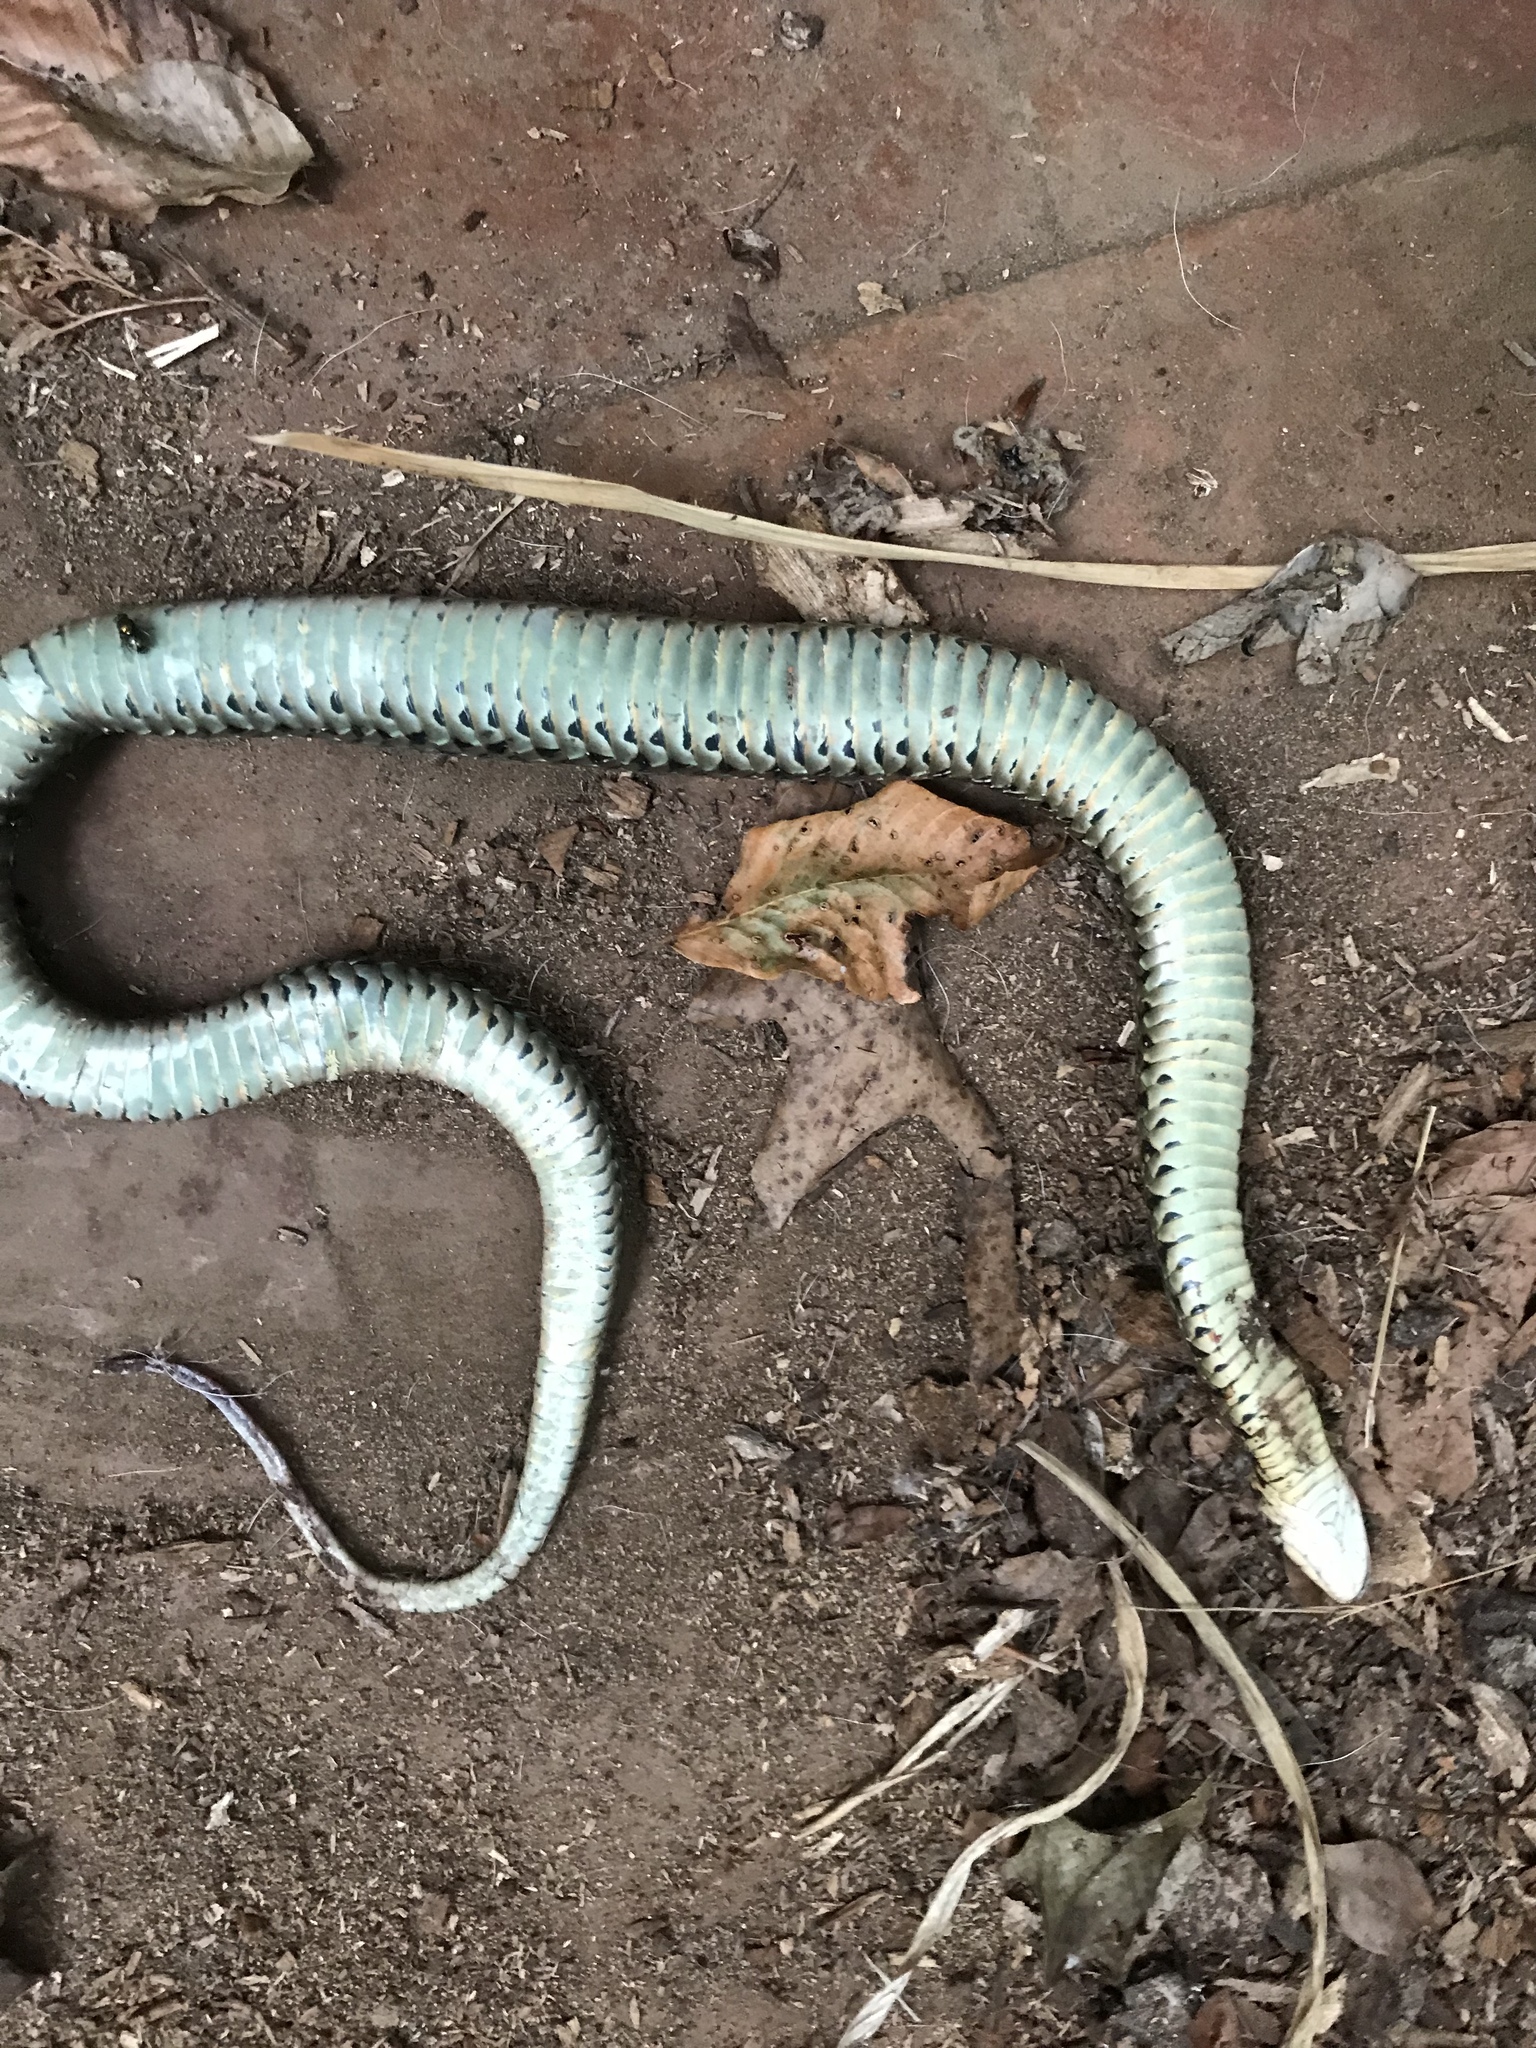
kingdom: Animalia
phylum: Chordata
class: Squamata
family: Colubridae
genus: Thamnophis
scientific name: Thamnophis sirtalis
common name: Common garter snake
